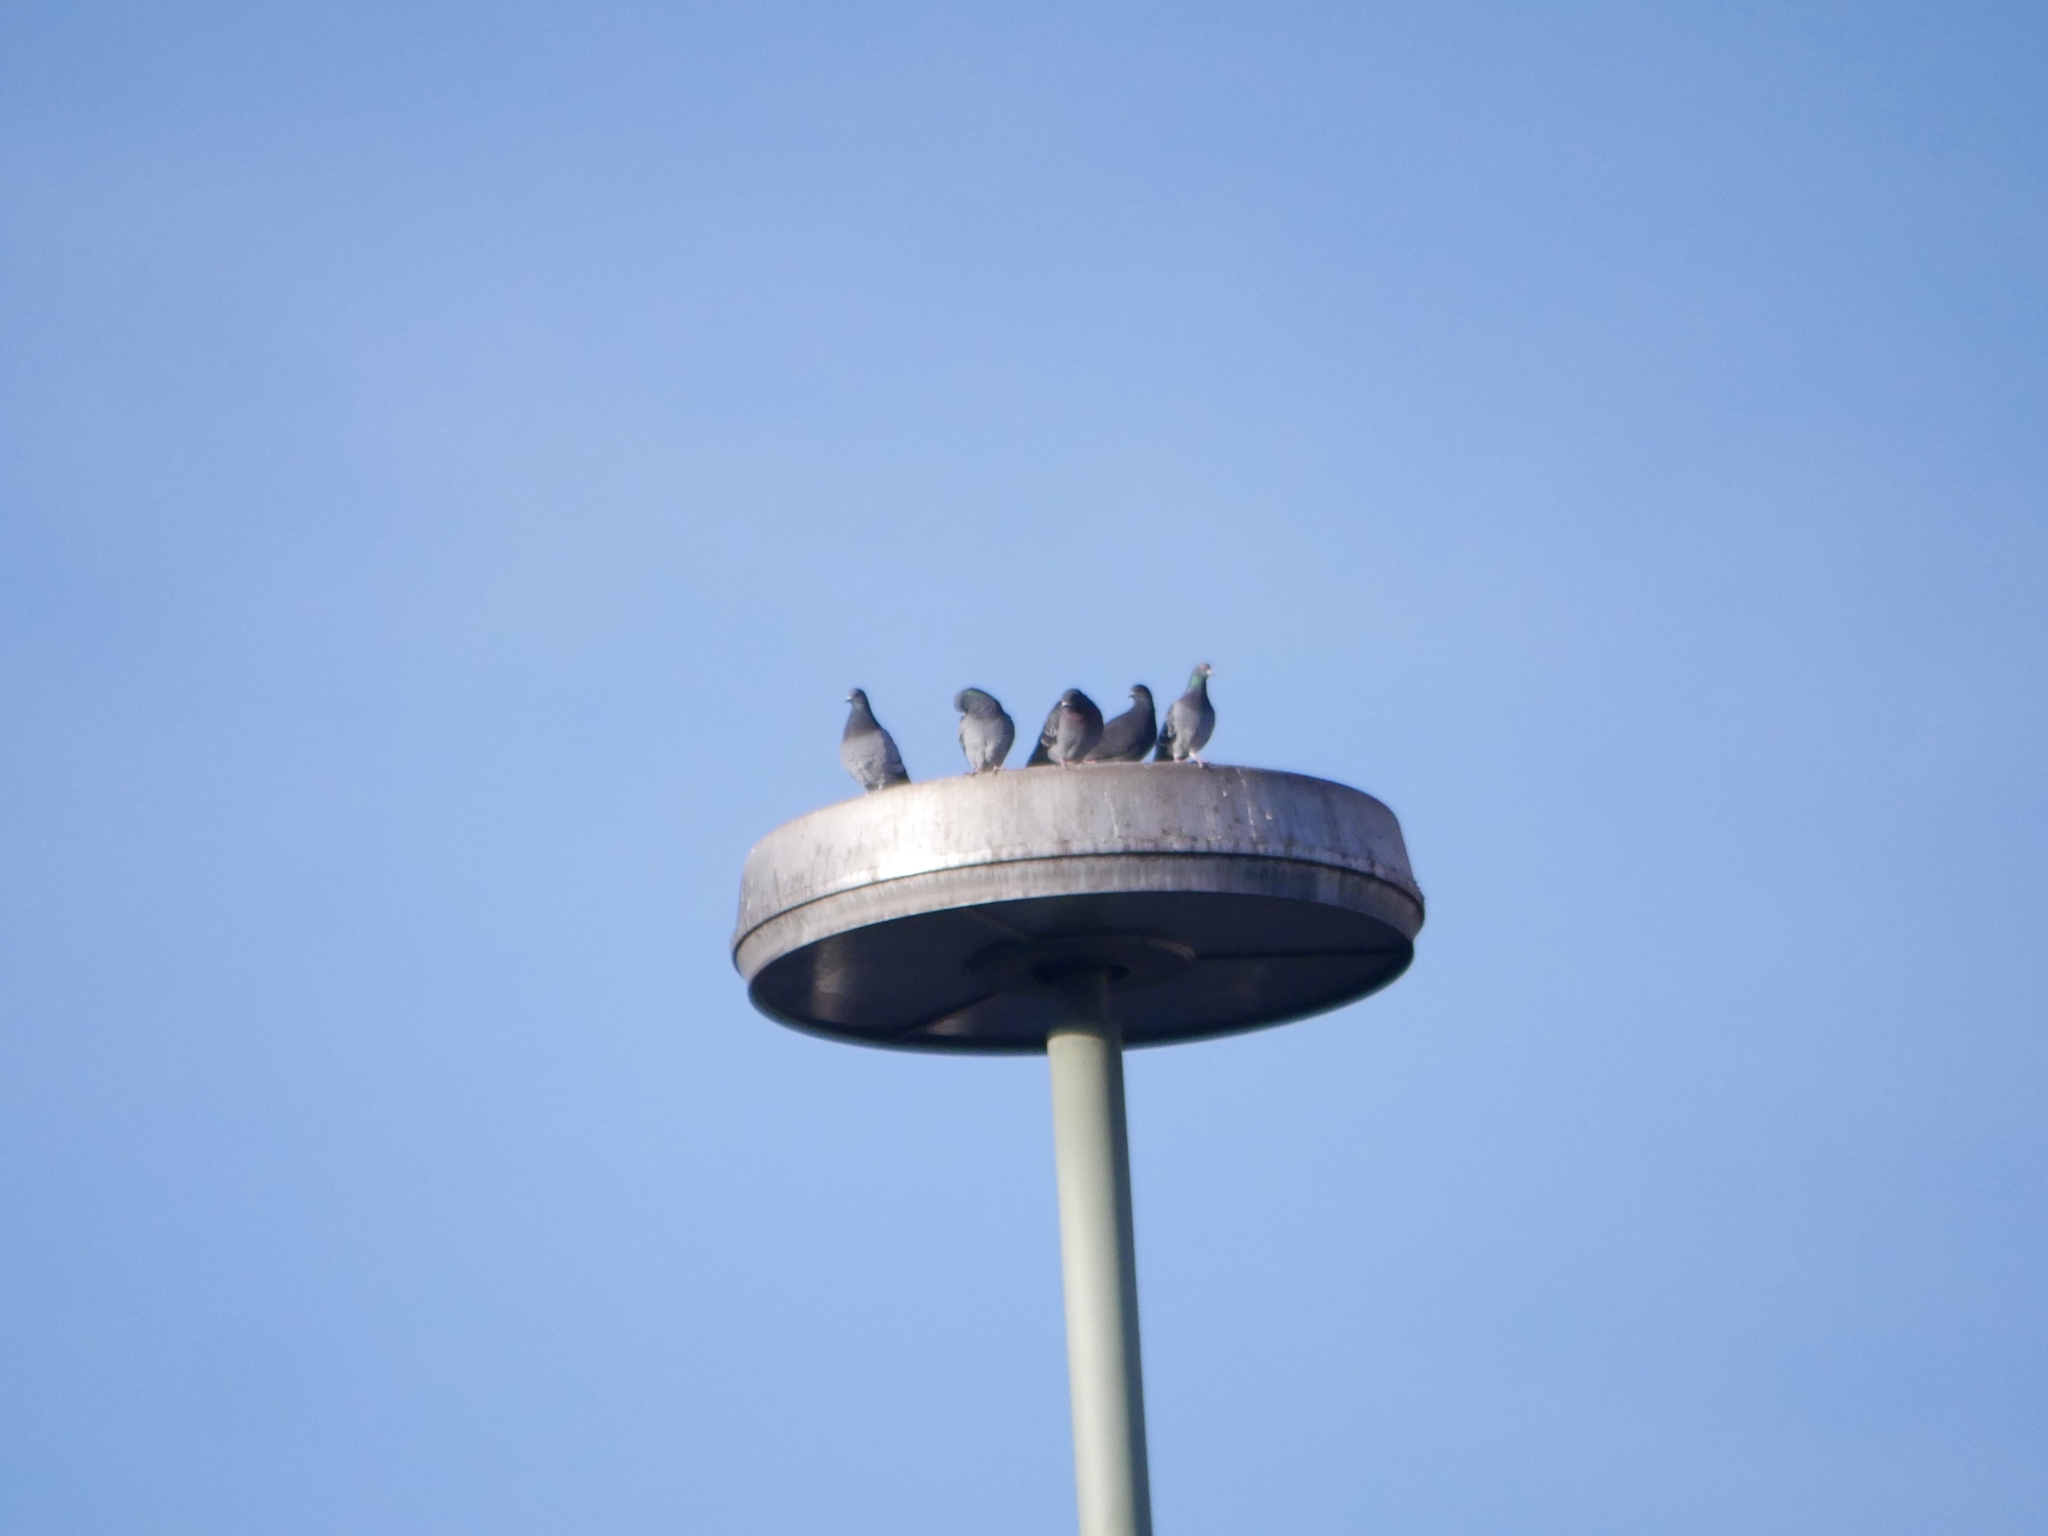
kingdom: Animalia
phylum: Chordata
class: Aves
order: Columbiformes
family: Columbidae
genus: Columba
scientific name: Columba livia
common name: Rock pigeon
